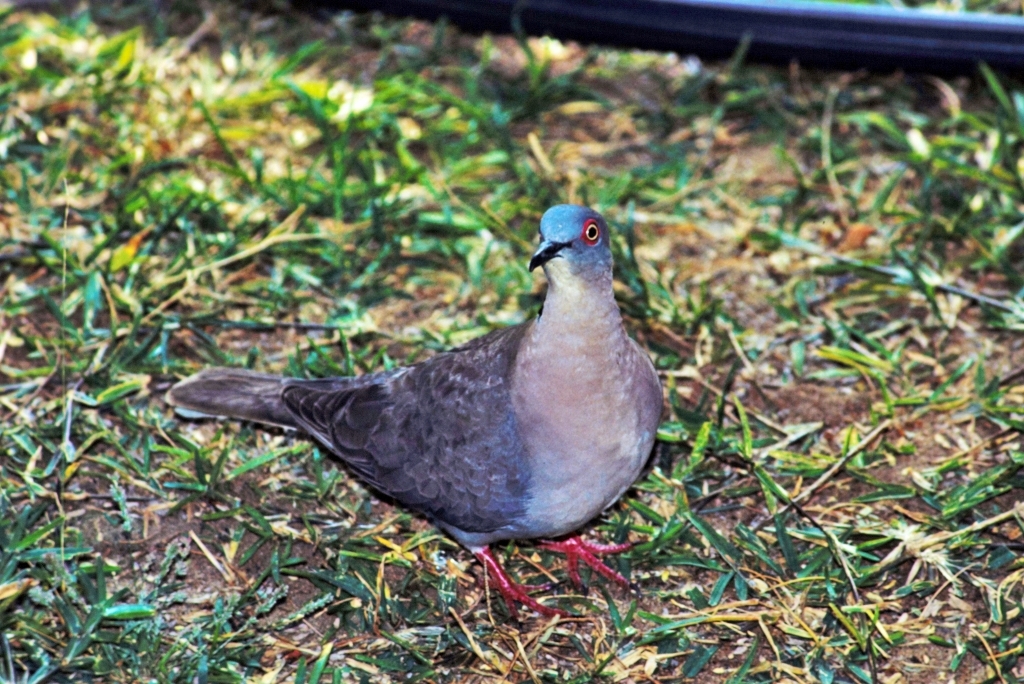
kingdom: Animalia
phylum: Chordata
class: Aves
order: Columbiformes
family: Columbidae
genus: Streptopelia
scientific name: Streptopelia decipiens
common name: Mourning collared dove
